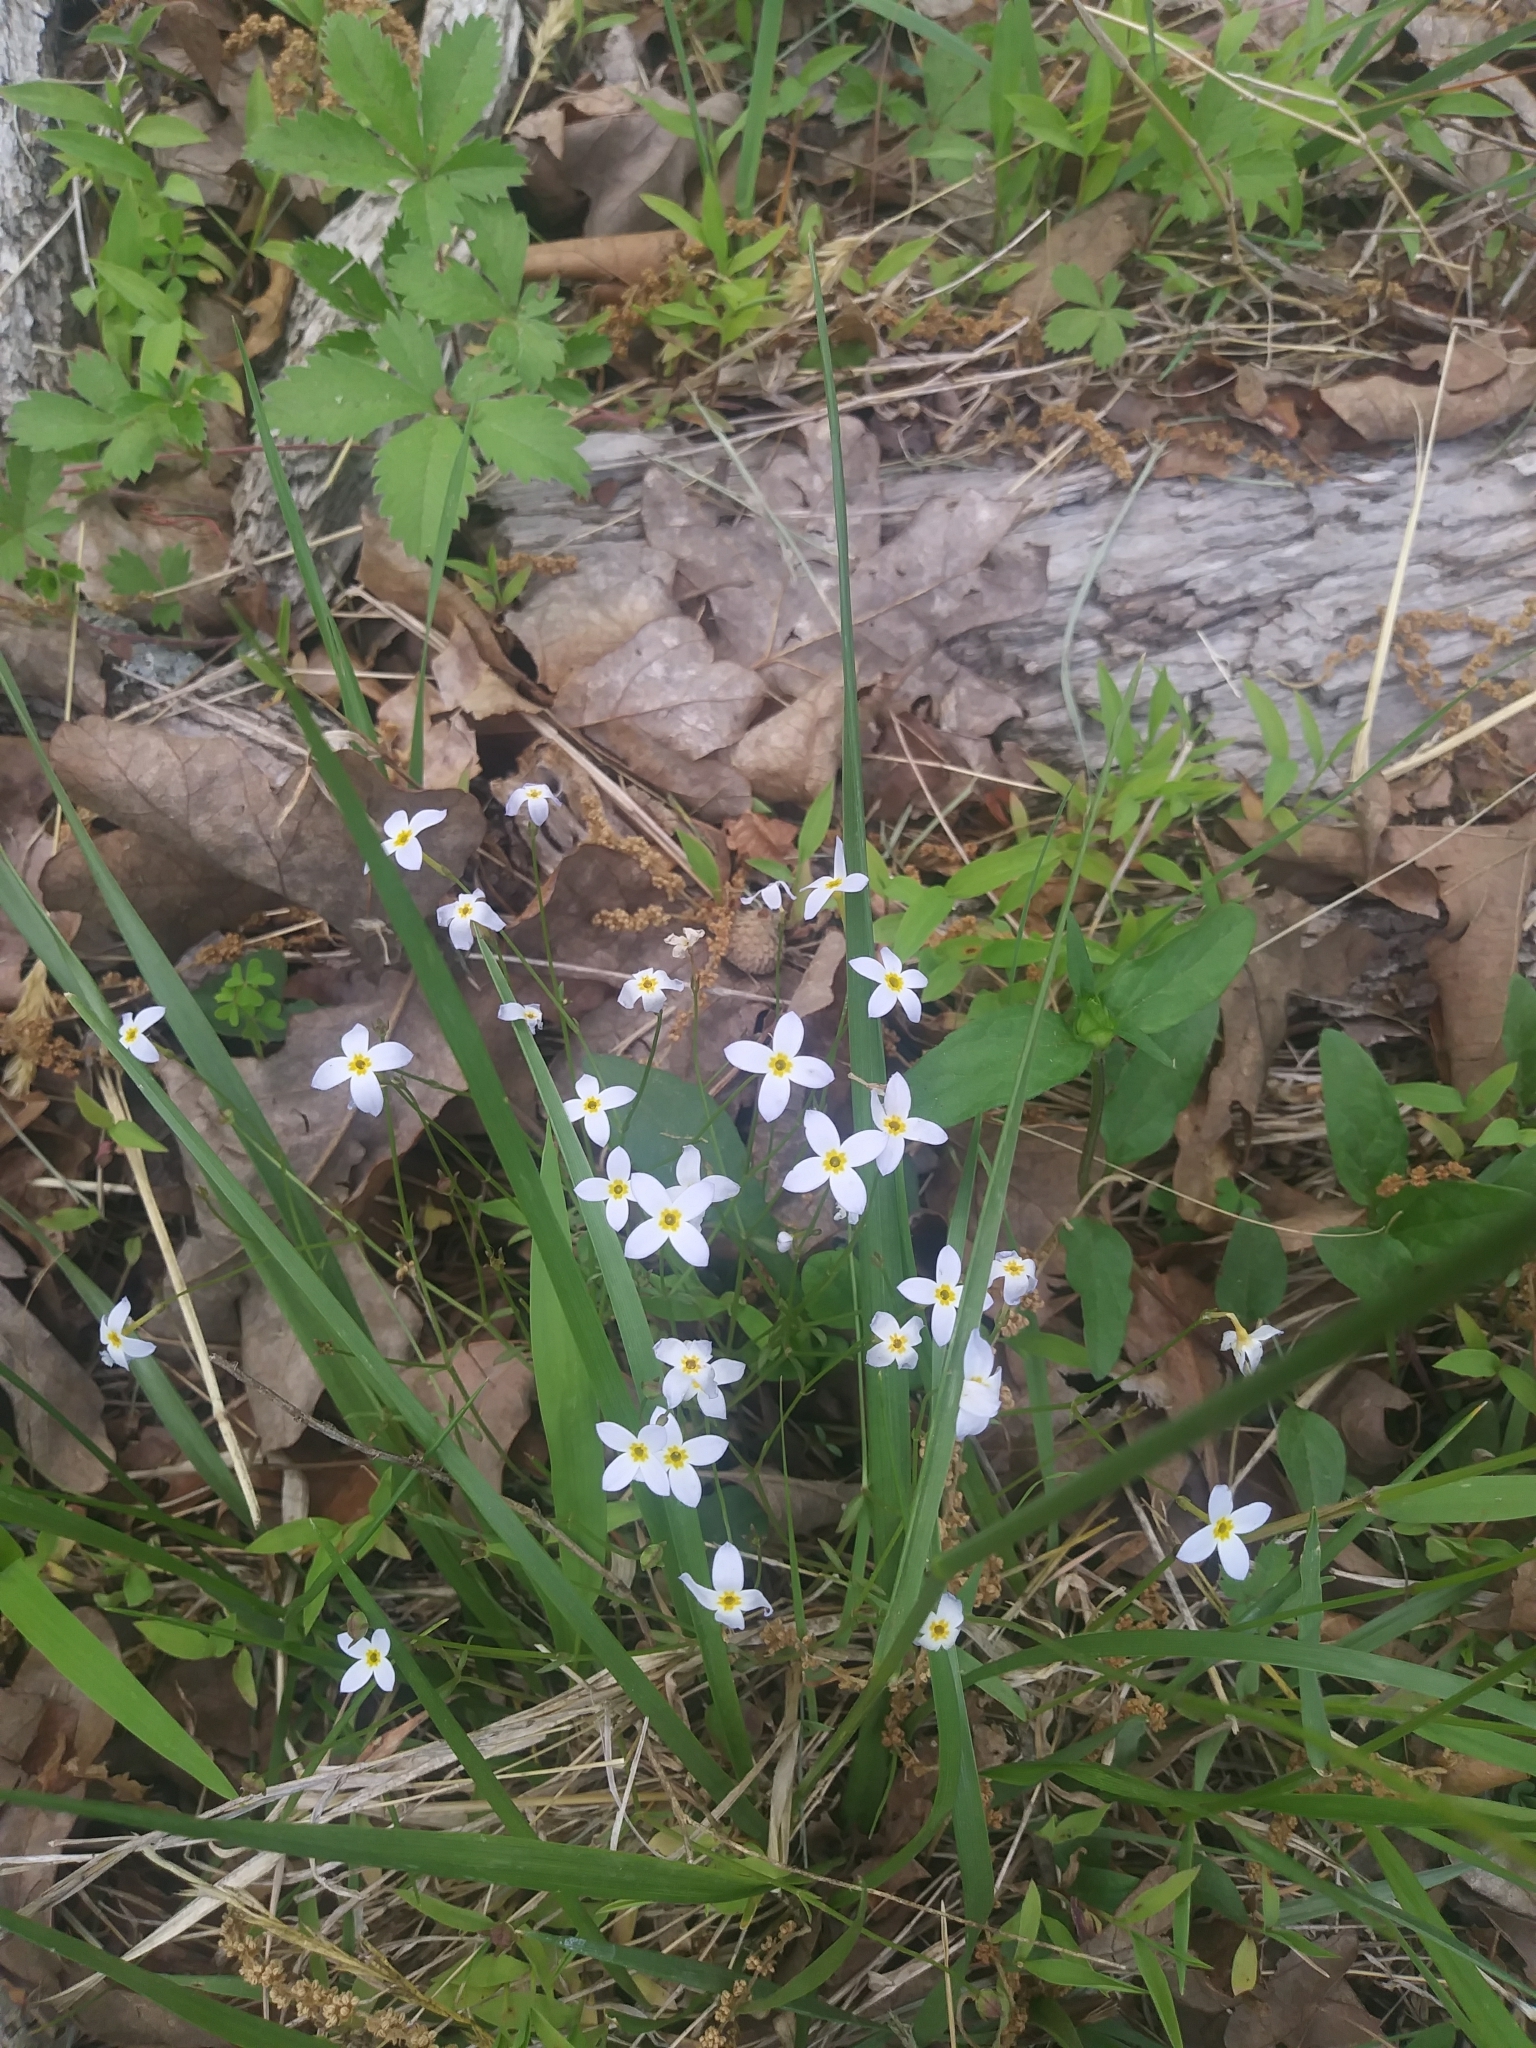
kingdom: Plantae
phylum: Tracheophyta
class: Magnoliopsida
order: Gentianales
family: Rubiaceae
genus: Houstonia
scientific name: Houstonia caerulea
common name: Bluets
